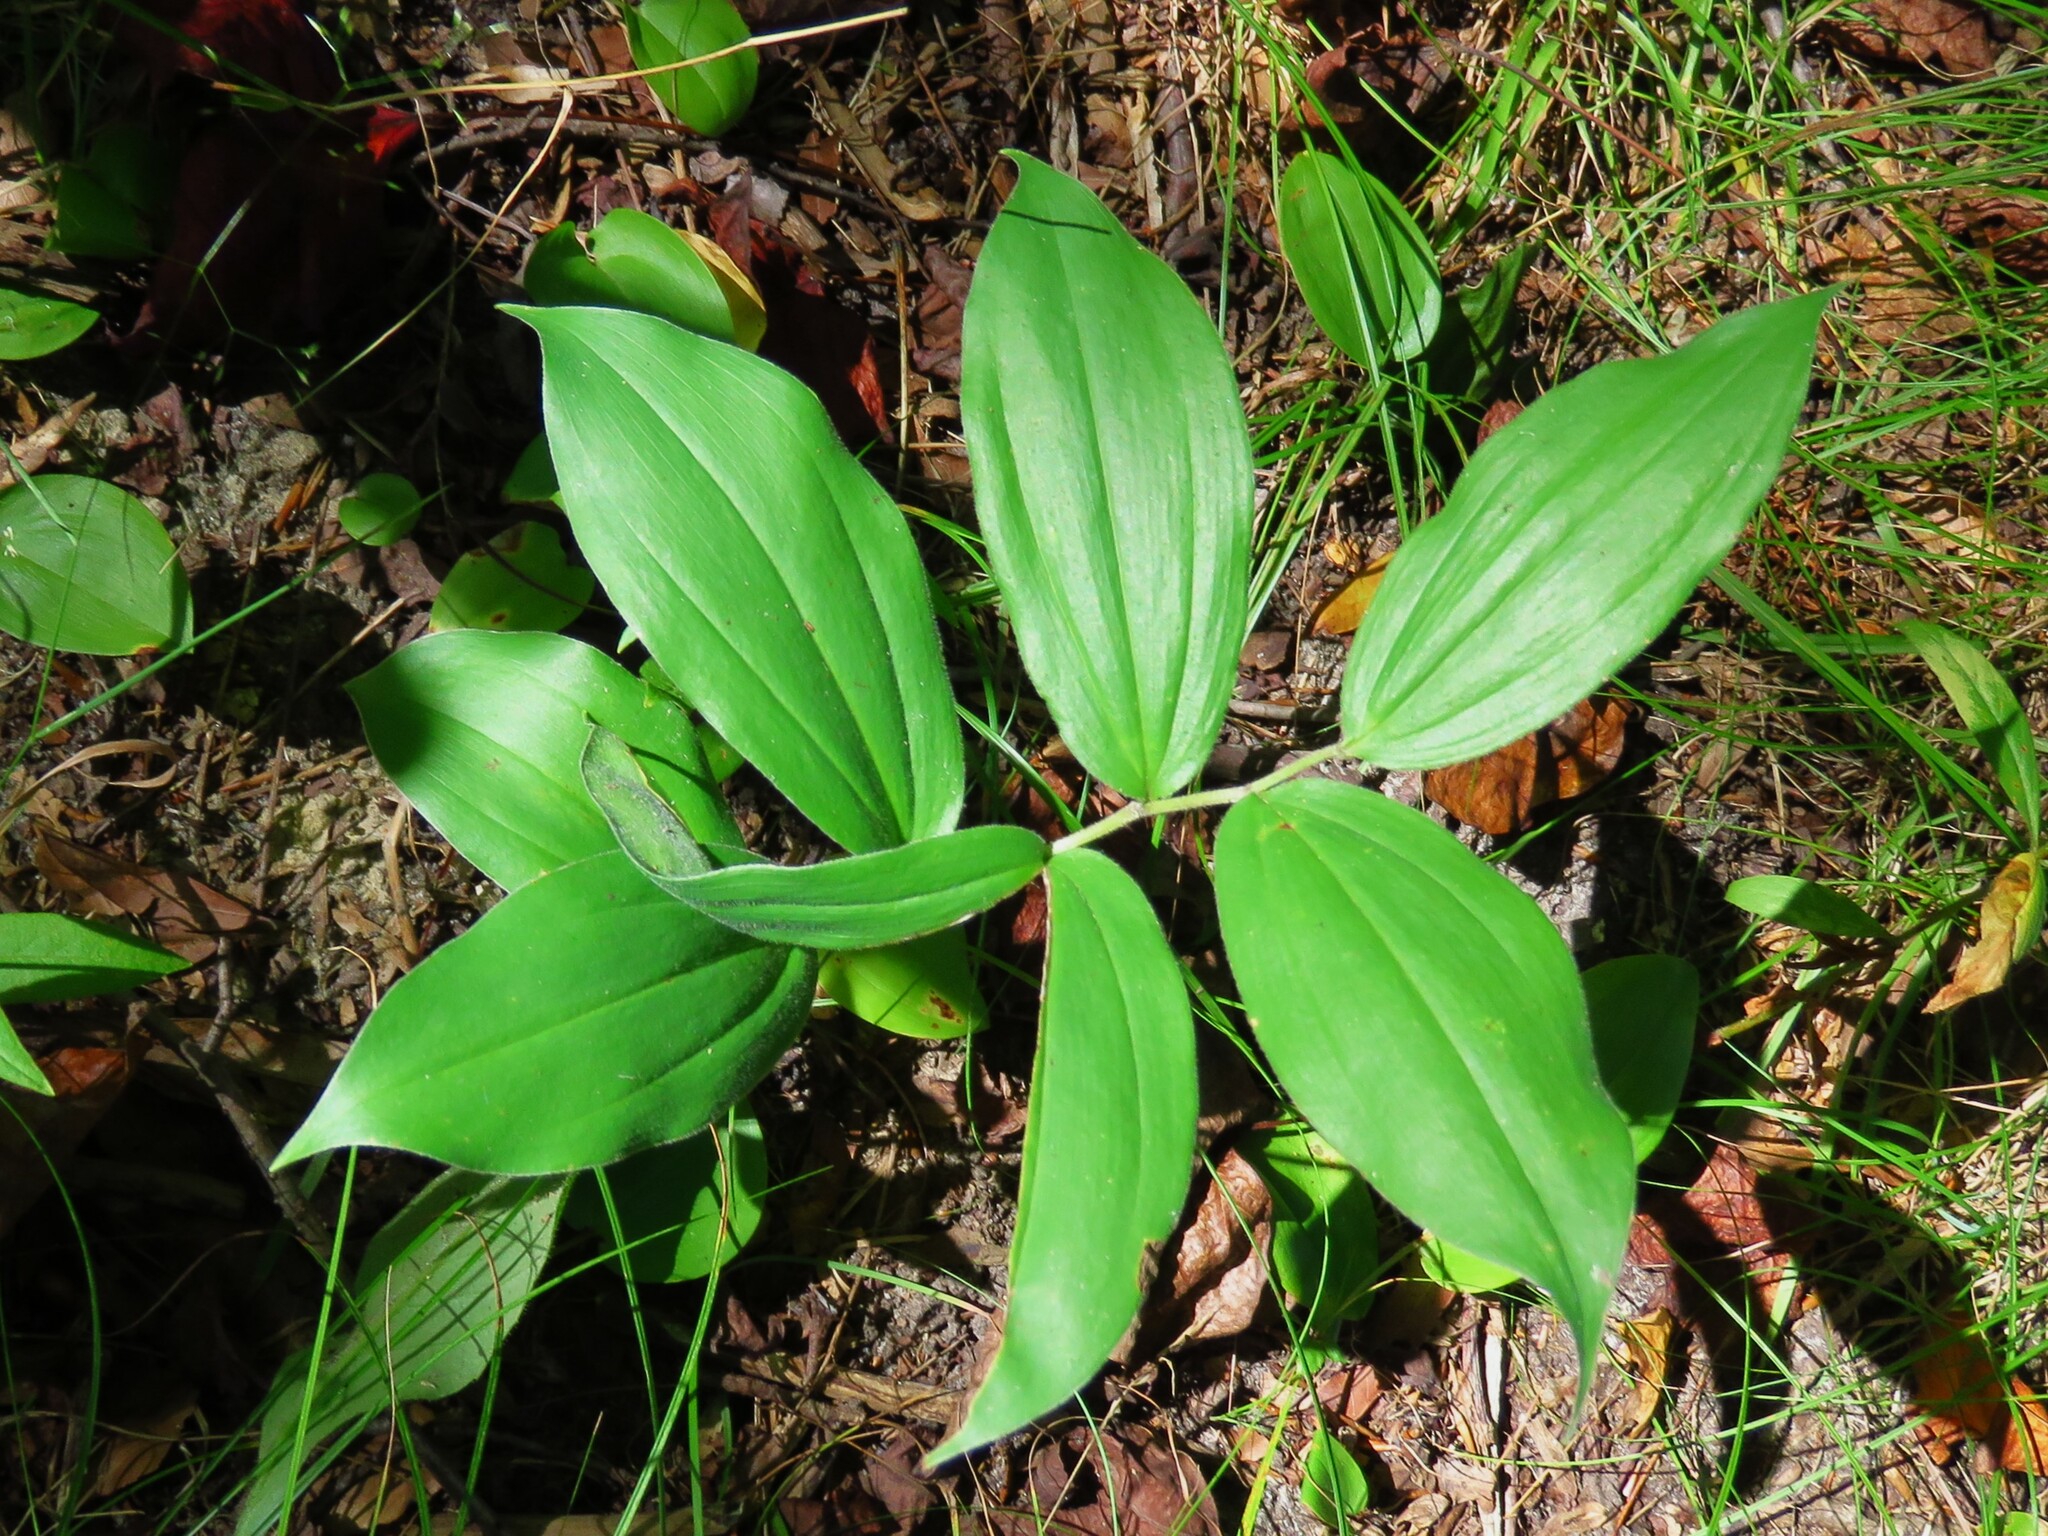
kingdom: Plantae
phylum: Tracheophyta
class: Liliopsida
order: Asparagales
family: Asparagaceae
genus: Maianthemum
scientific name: Maianthemum racemosum
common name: False spikenard
